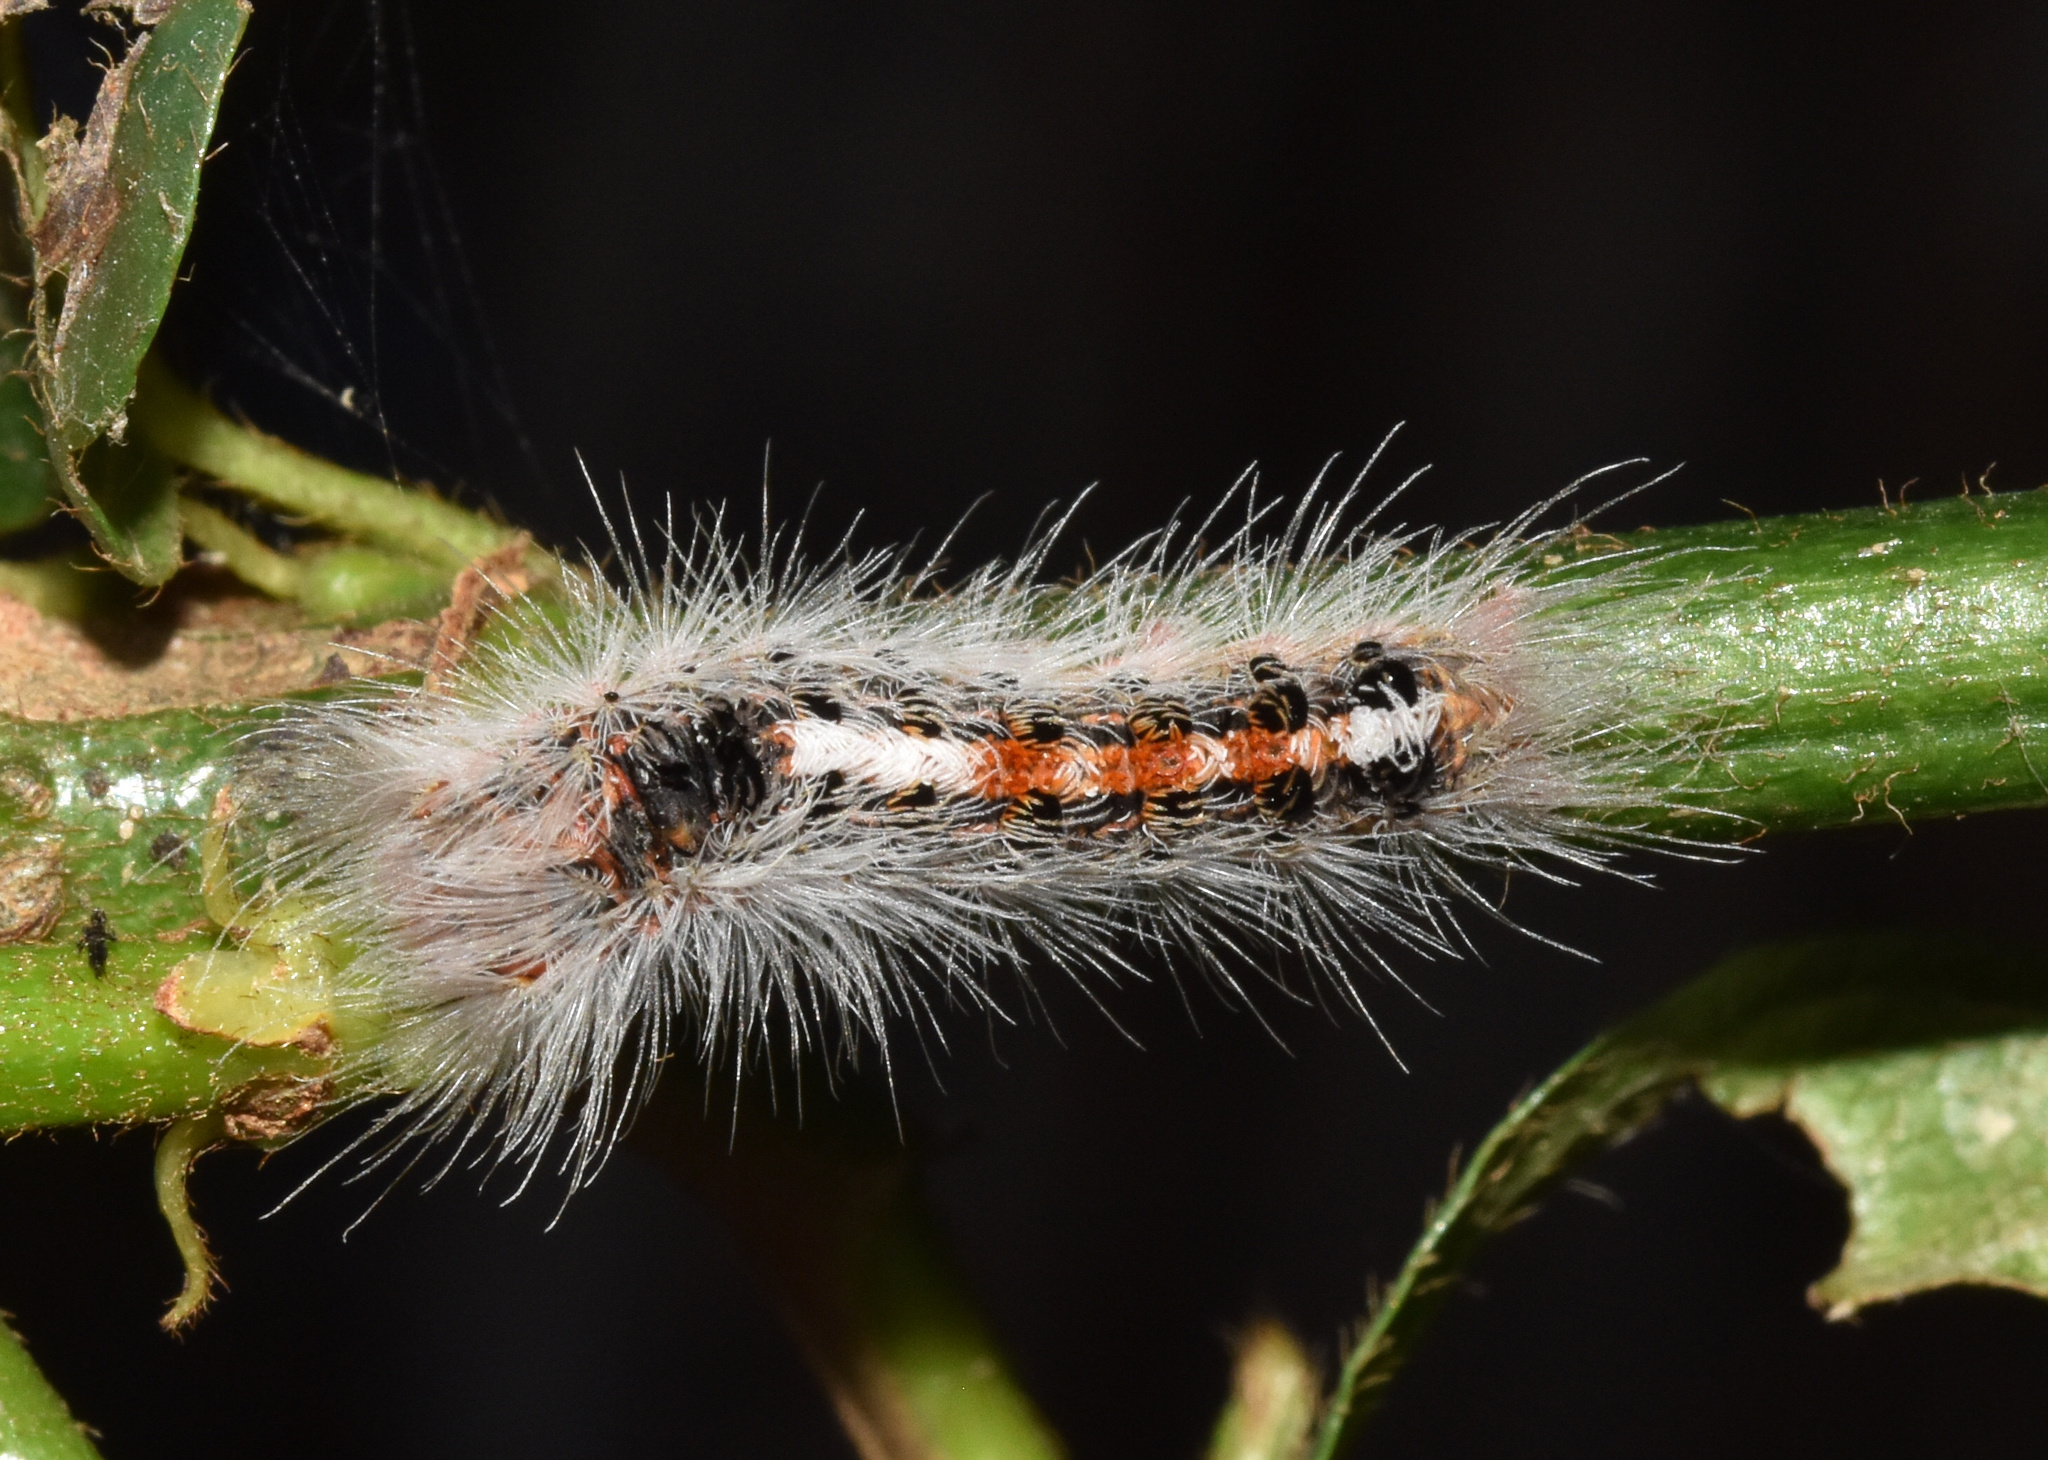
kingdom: Animalia
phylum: Arthropoda
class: Insecta
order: Lepidoptera
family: Erebidae
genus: Euproctis
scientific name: Euproctis punctifera
